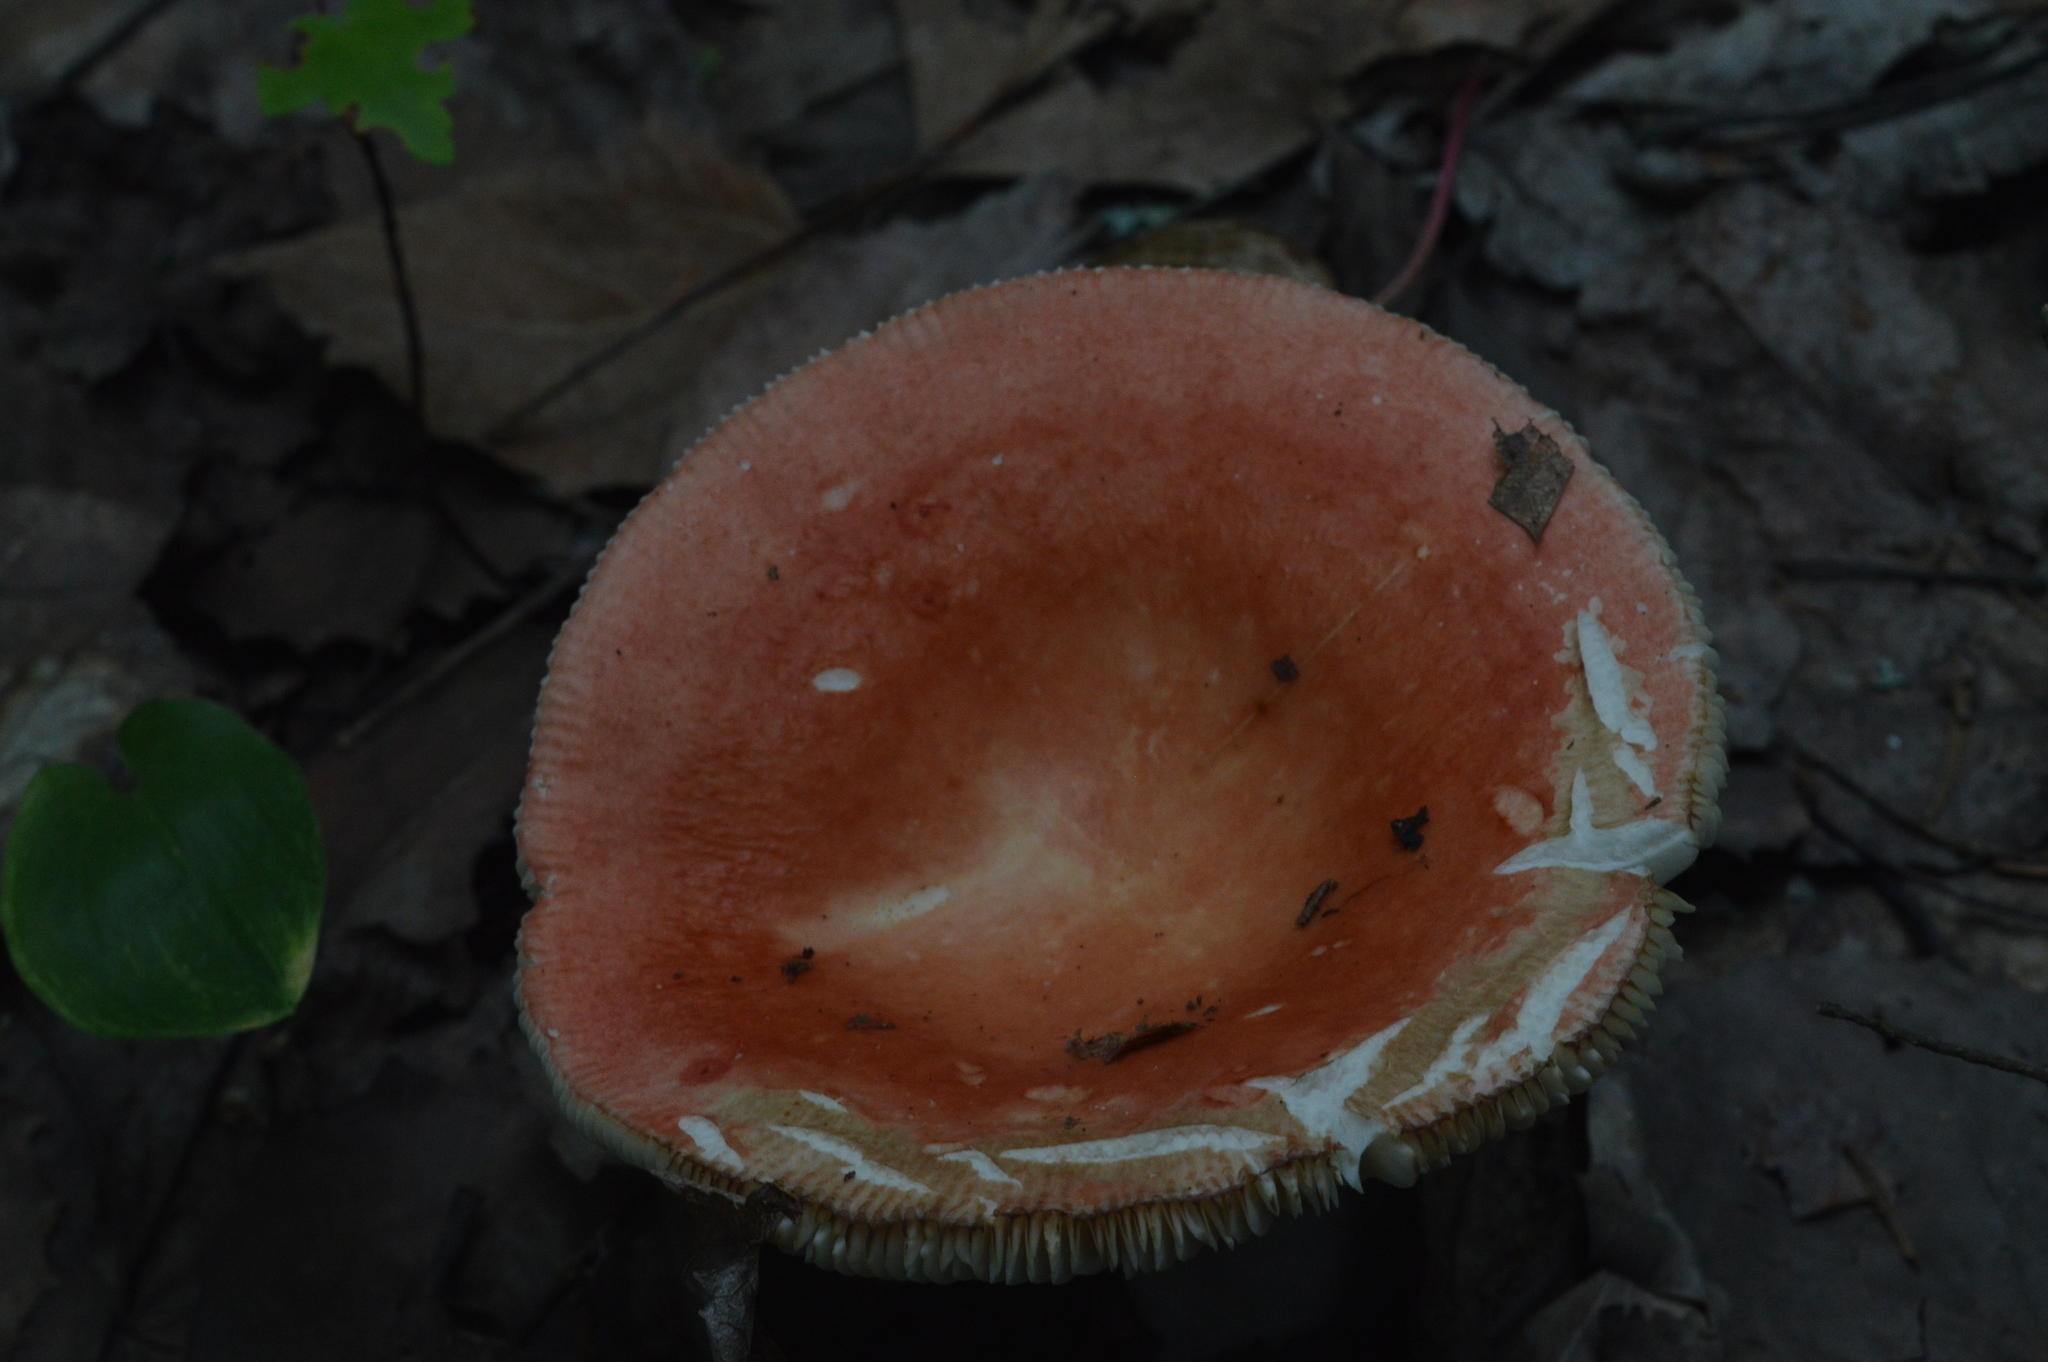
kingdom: Fungi
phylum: Basidiomycota
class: Agaricomycetes
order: Russulales
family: Russulaceae
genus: Russula
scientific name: Russula
